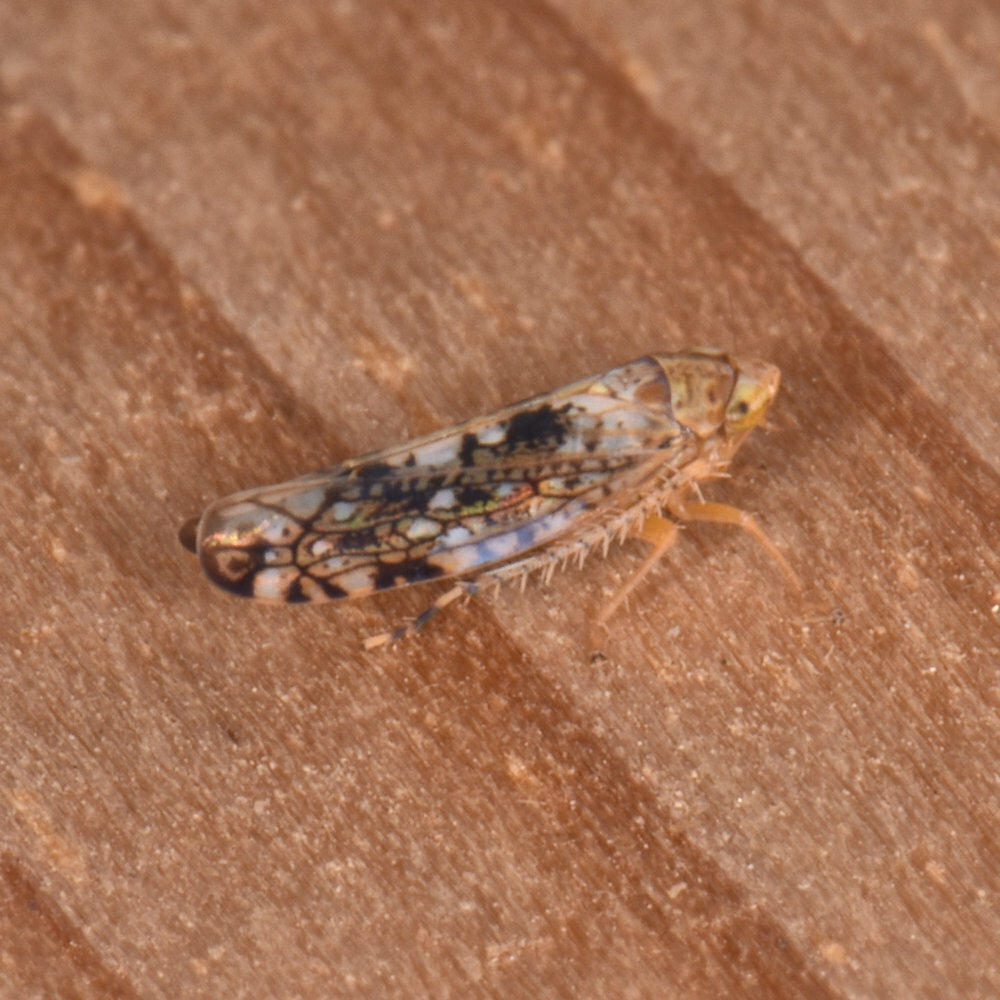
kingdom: Animalia
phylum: Arthropoda
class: Insecta
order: Hemiptera
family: Cicadellidae
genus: Prescottia
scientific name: Prescottia lobata
